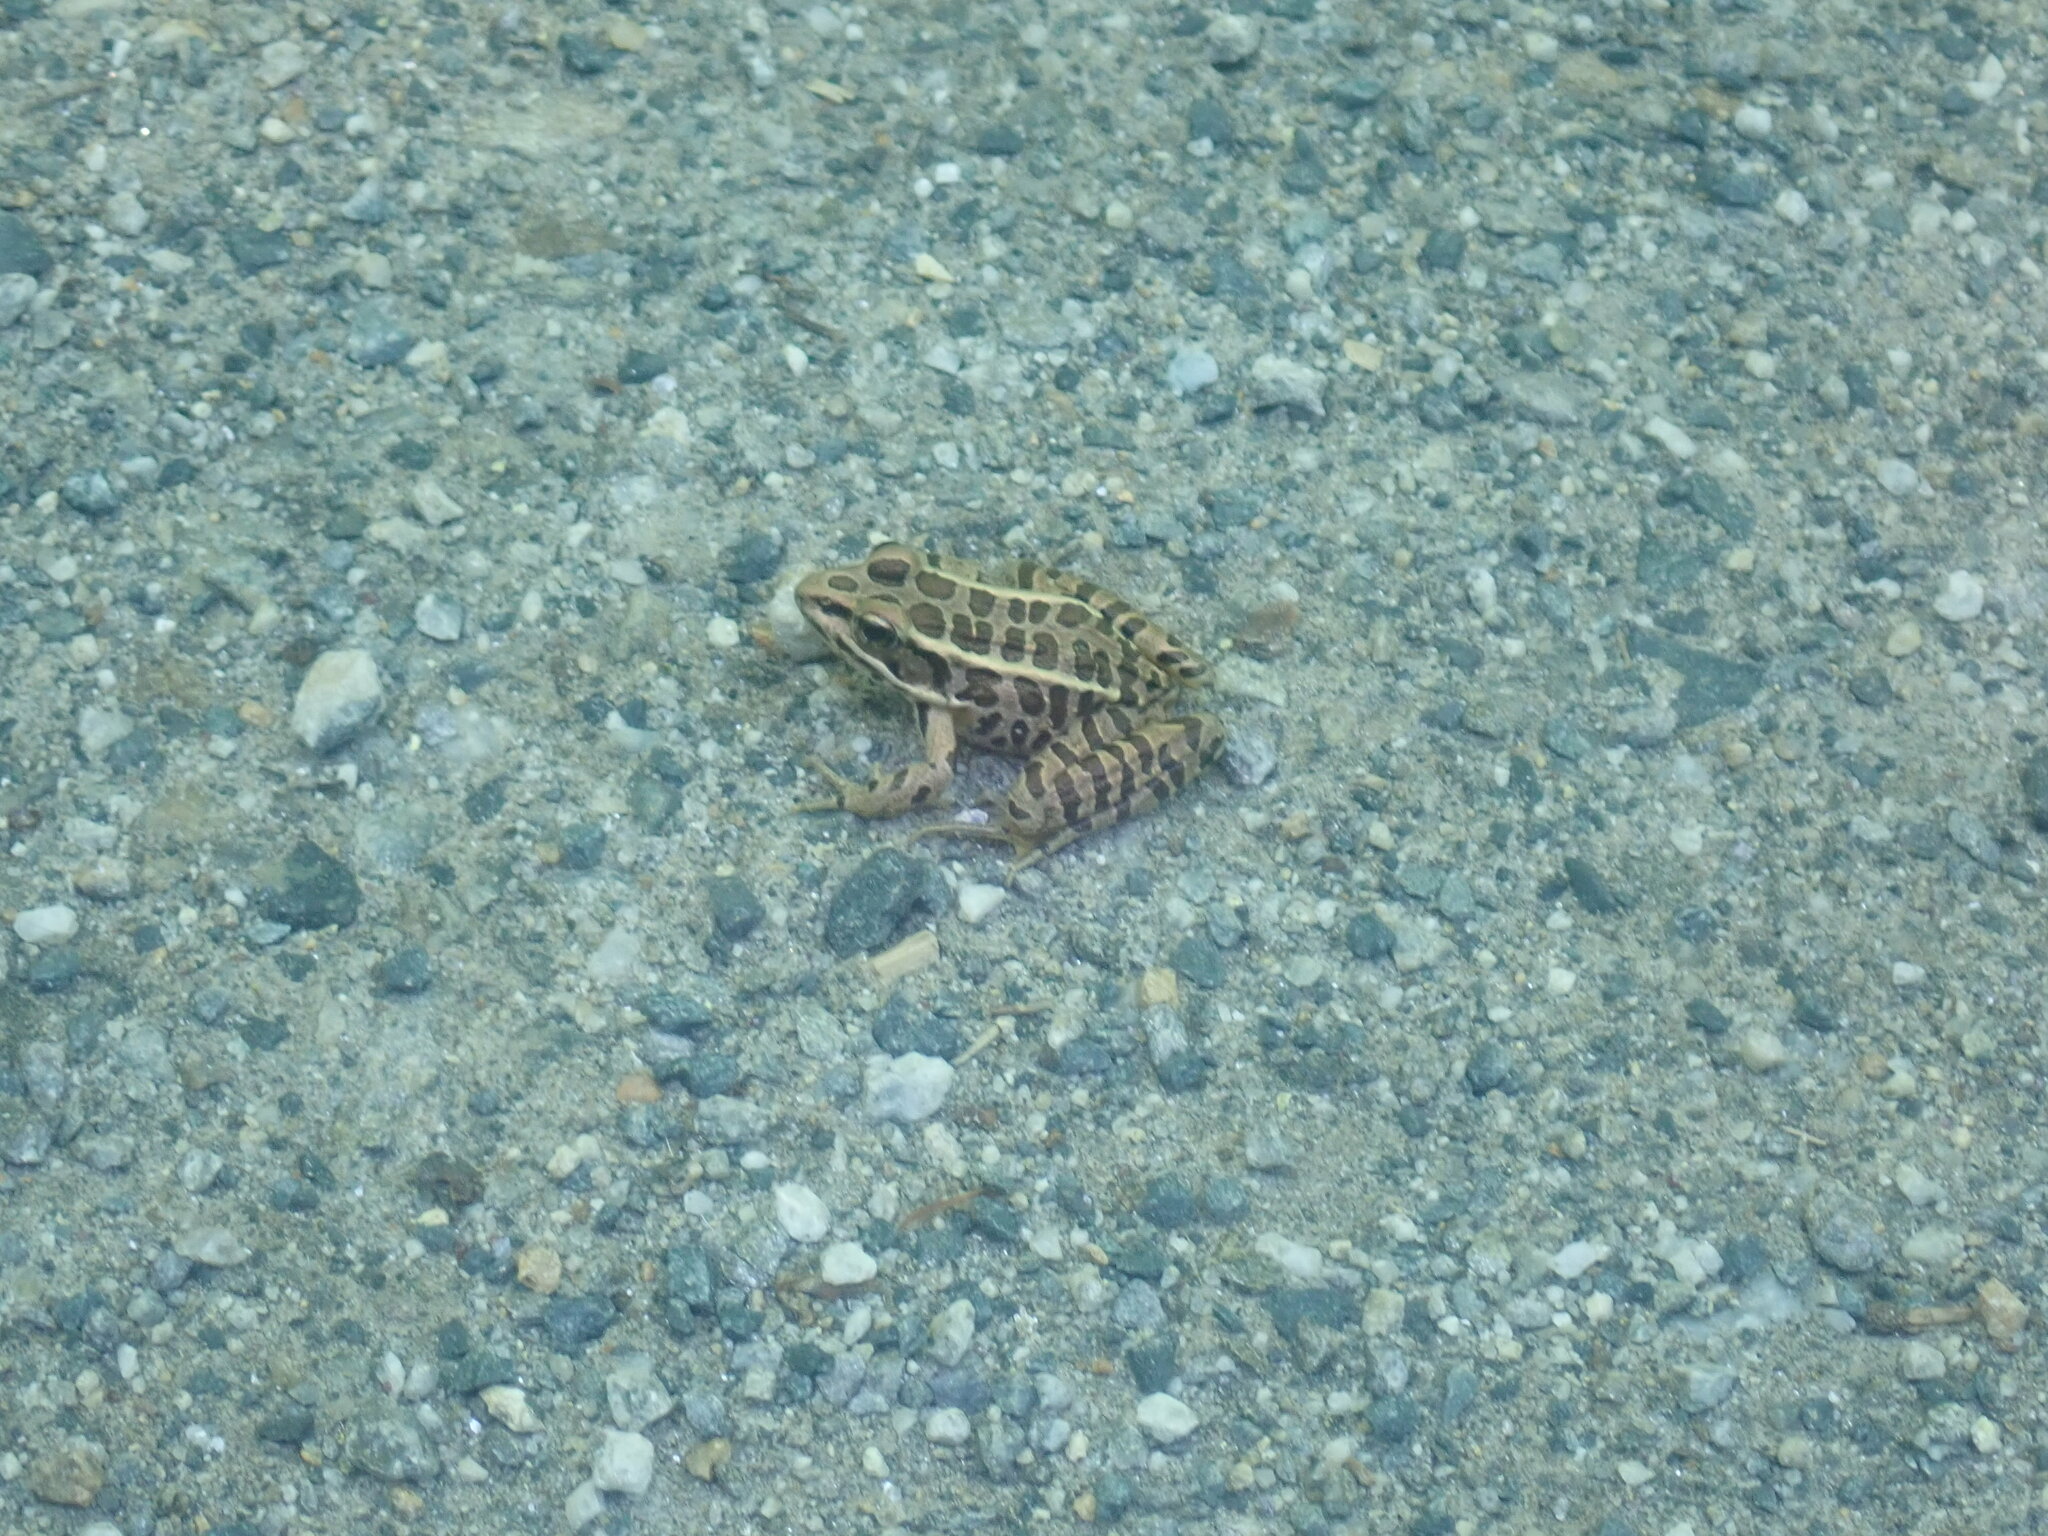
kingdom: Animalia
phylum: Chordata
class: Amphibia
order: Anura
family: Ranidae
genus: Lithobates
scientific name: Lithobates palustris
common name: Pickerel frog
